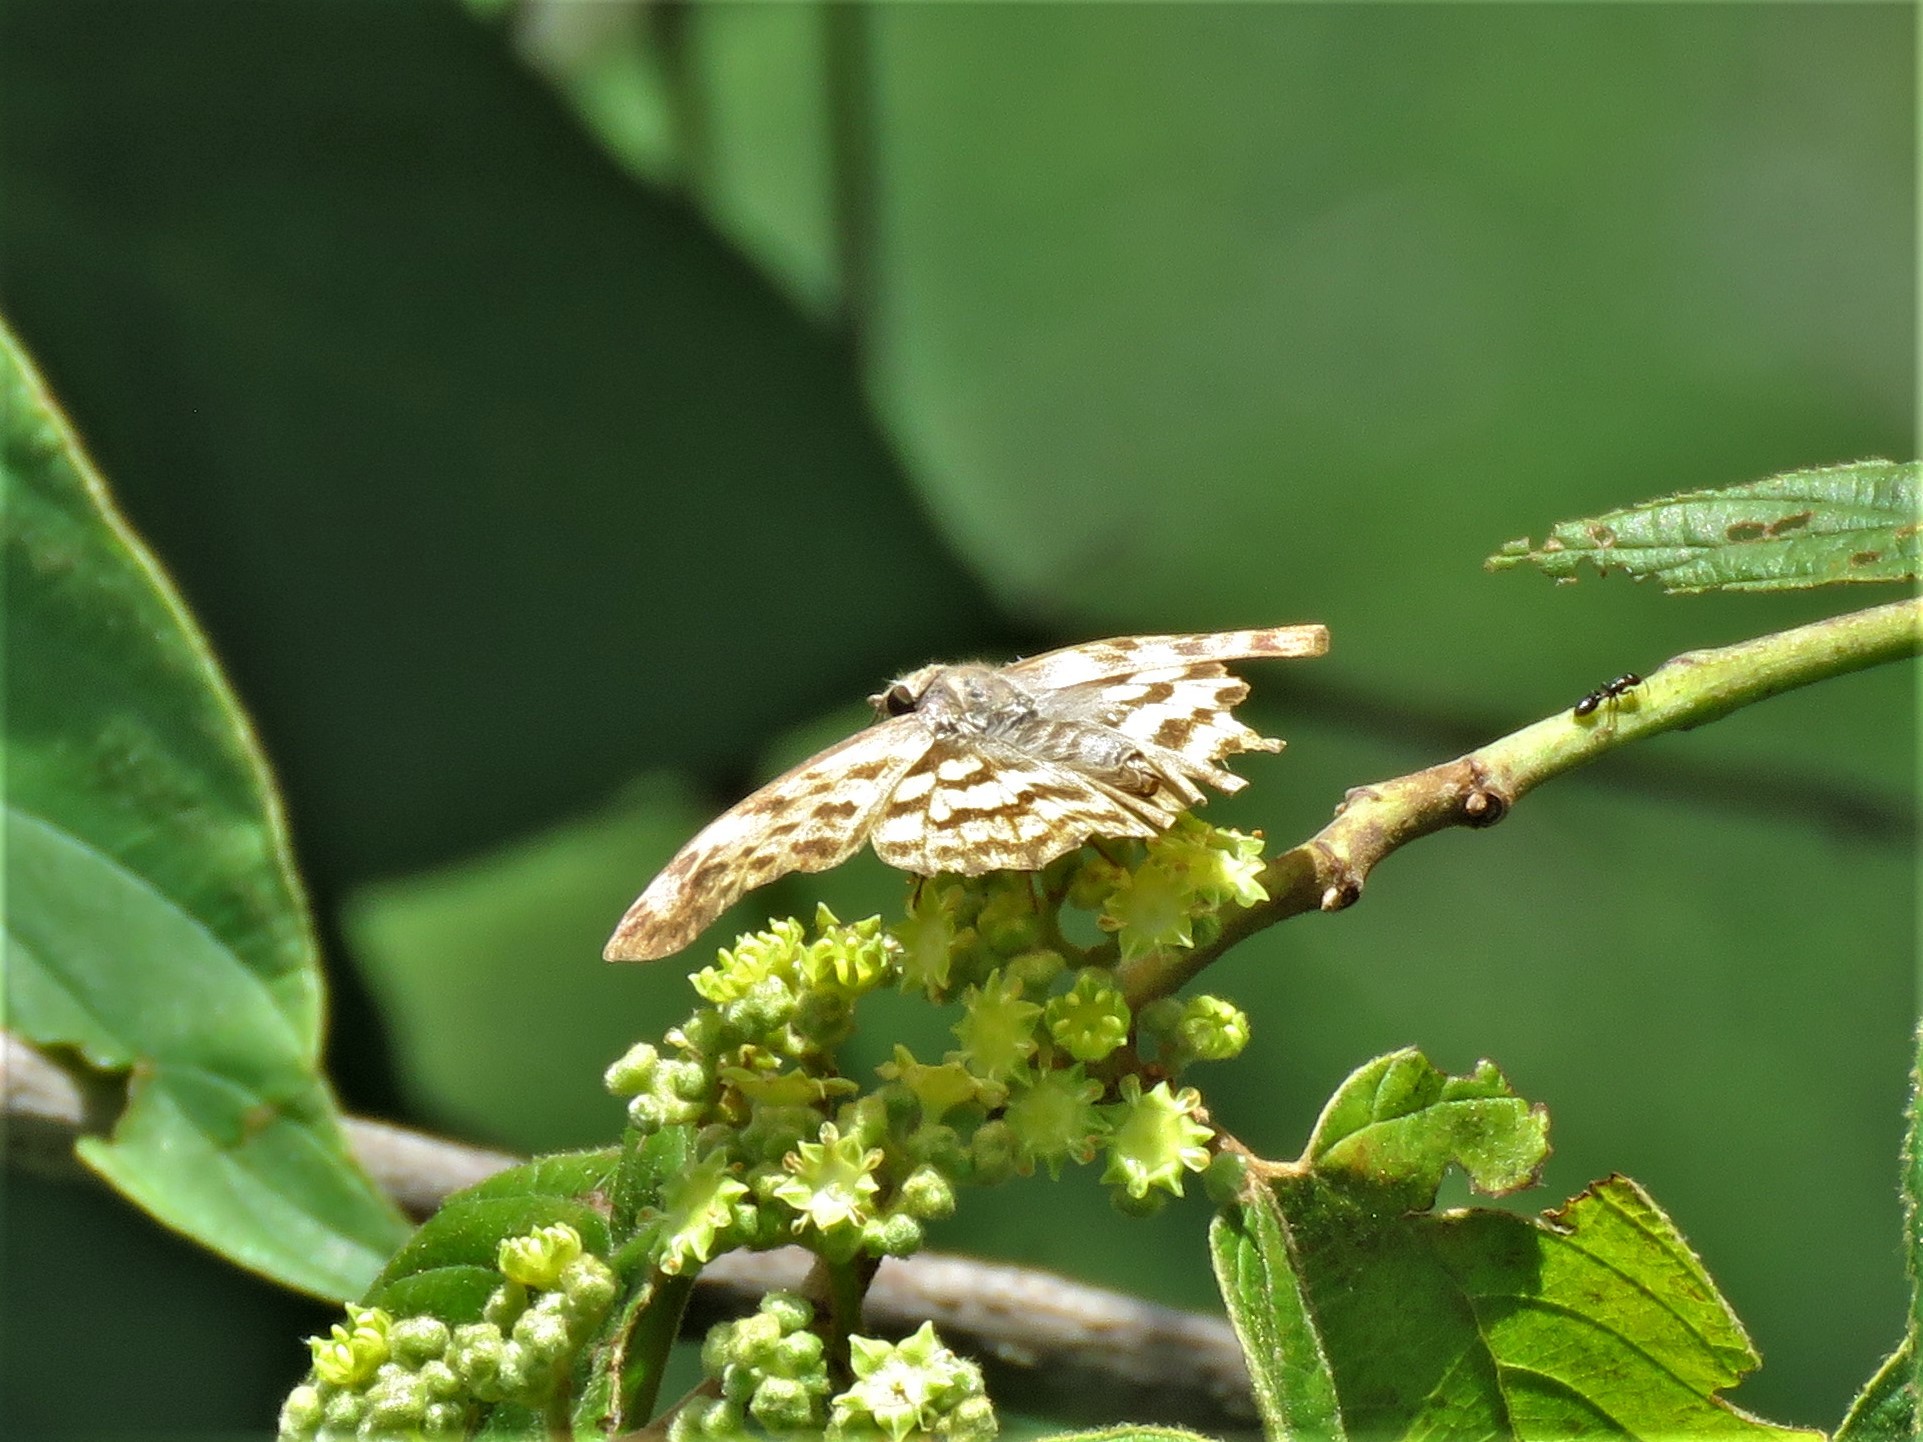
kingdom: Animalia
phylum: Arthropoda
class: Insecta
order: Lepidoptera
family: Hesperiidae
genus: Timochares
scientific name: Timochares ruptifasciata
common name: Brown-banded skipper
